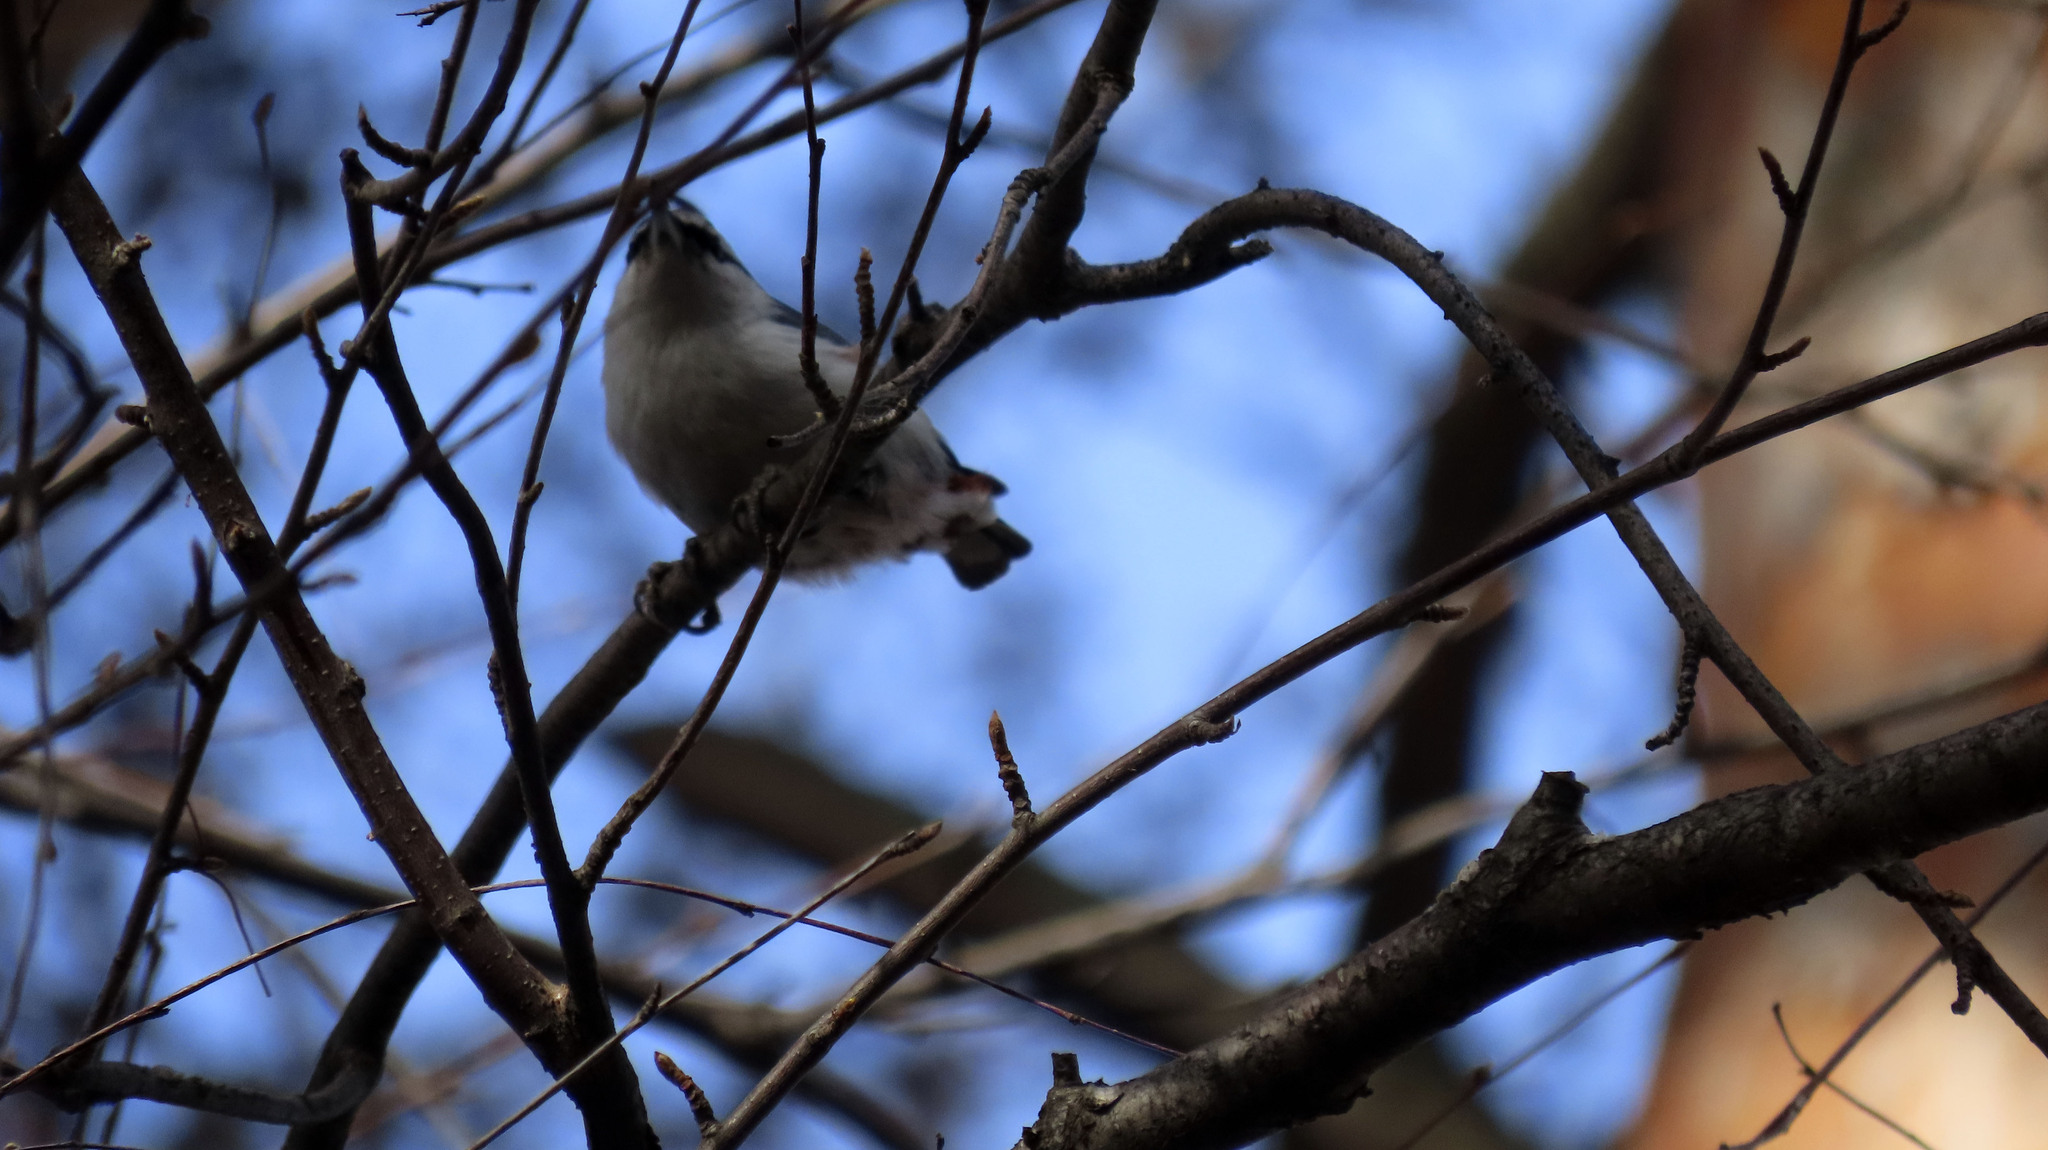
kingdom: Animalia
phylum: Chordata
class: Aves
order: Passeriformes
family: Sittidae
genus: Sitta
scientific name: Sitta europaea
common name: Eurasian nuthatch
